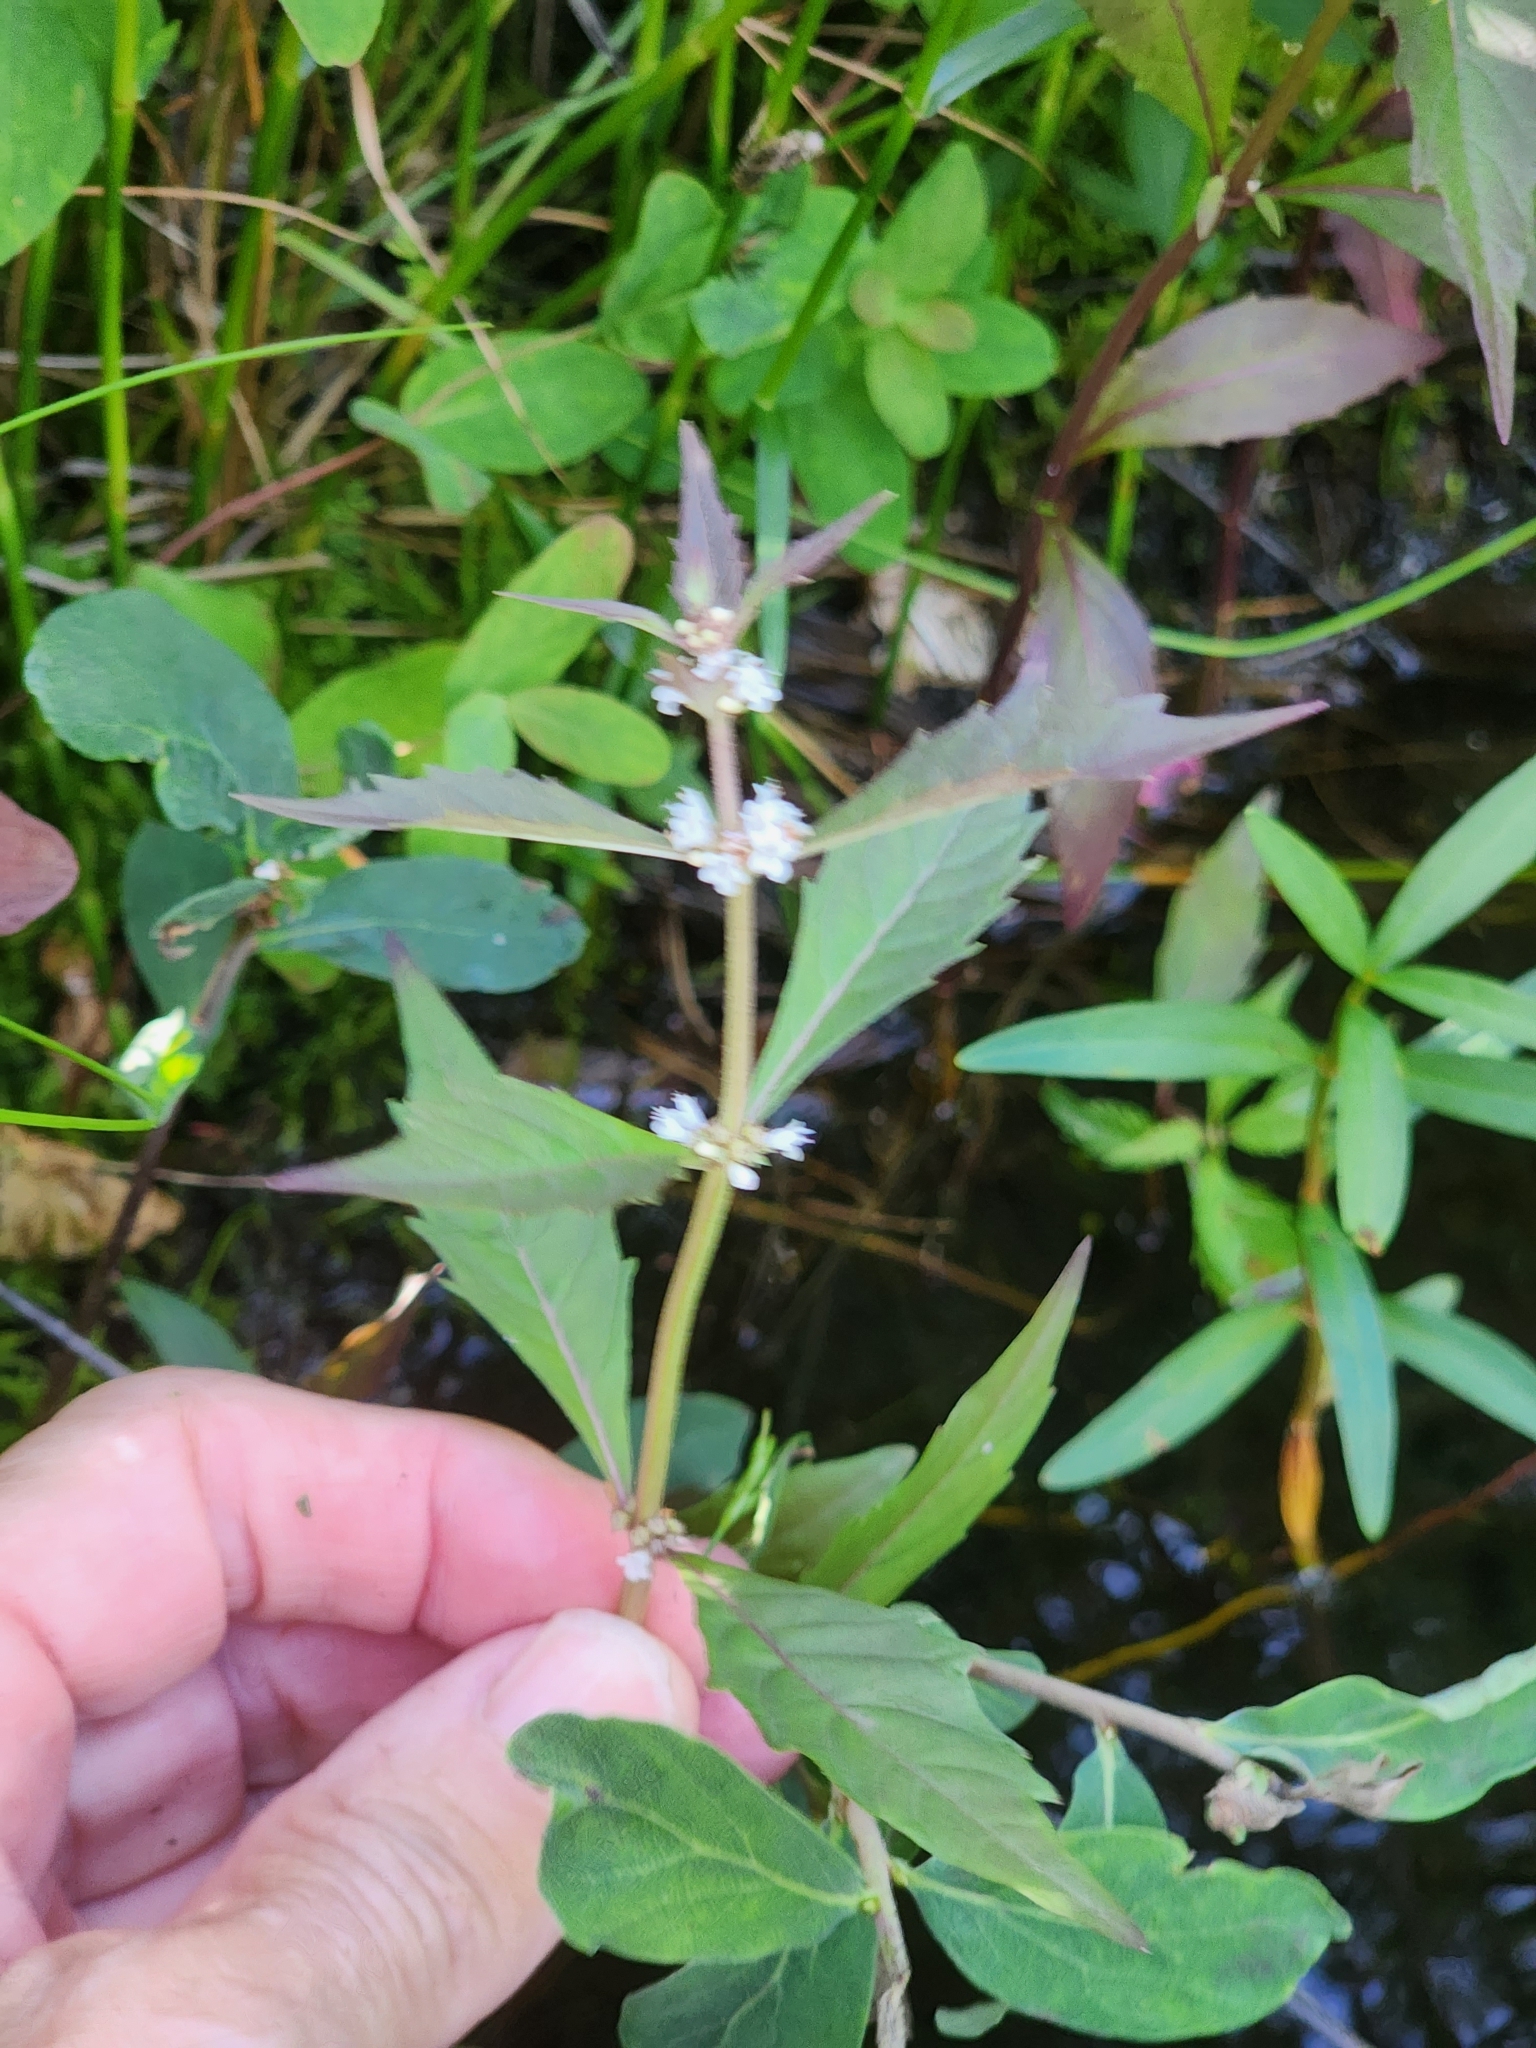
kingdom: Plantae
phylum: Tracheophyta
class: Magnoliopsida
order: Lamiales
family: Lamiaceae
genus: Lycopus
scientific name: Lycopus uniflorus
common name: Northern bugleweed
